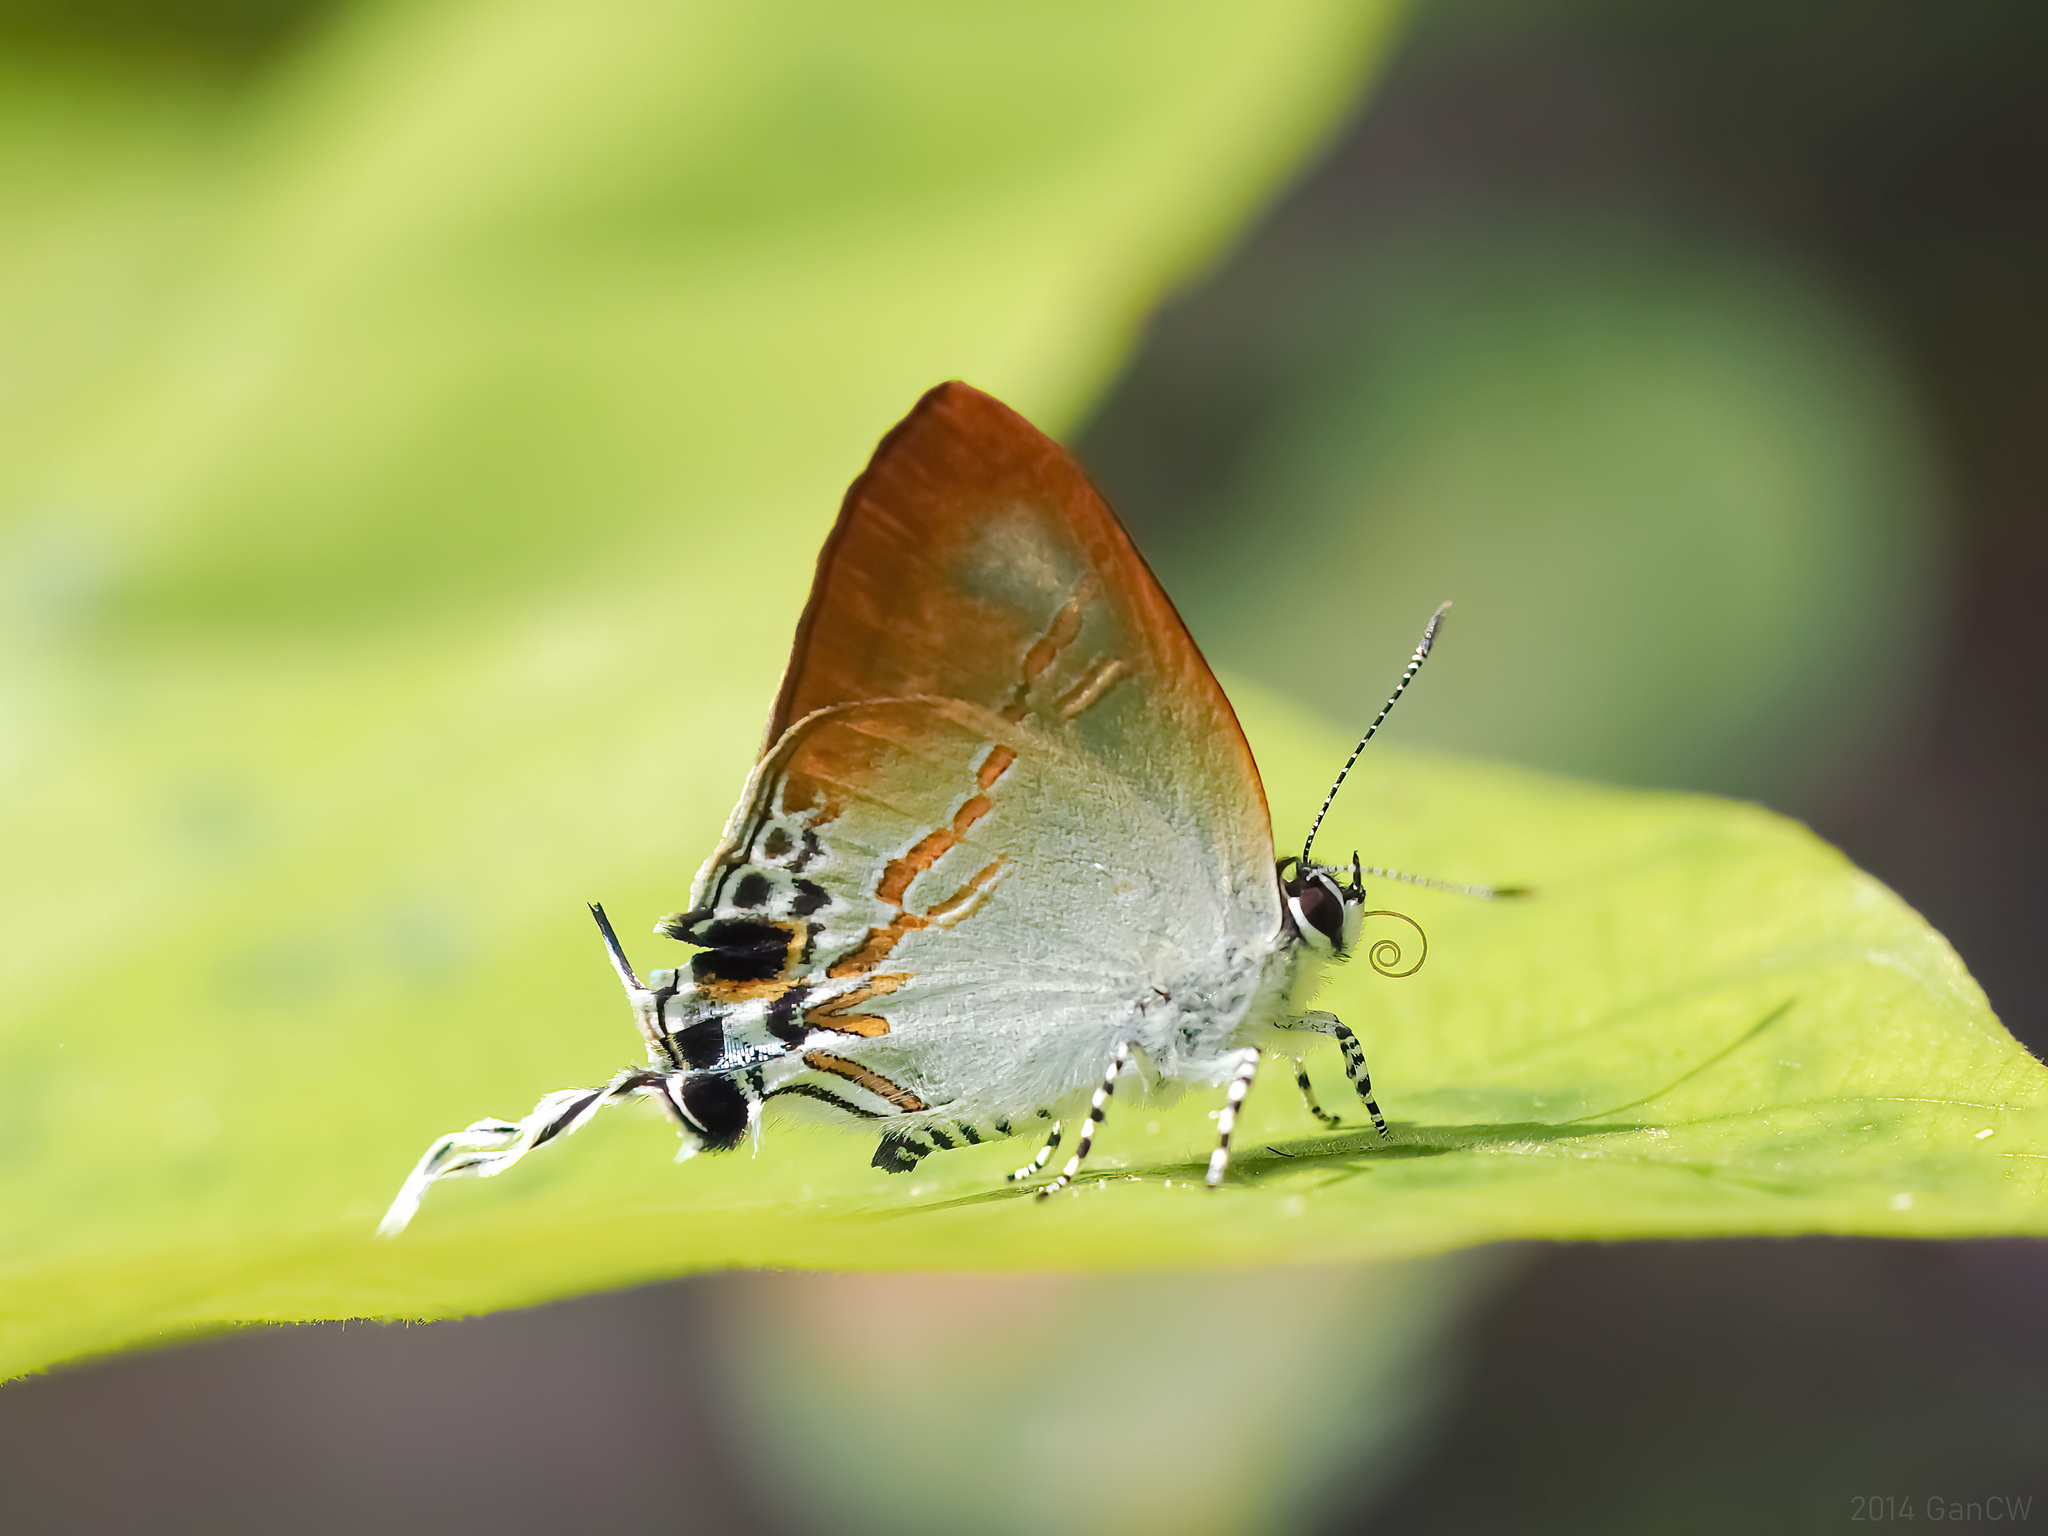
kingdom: Animalia
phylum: Arthropoda
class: Insecta
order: Lepidoptera
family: Lycaenidae
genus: Hypolycaena
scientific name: Hypolycaena merguia
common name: Purple tit
